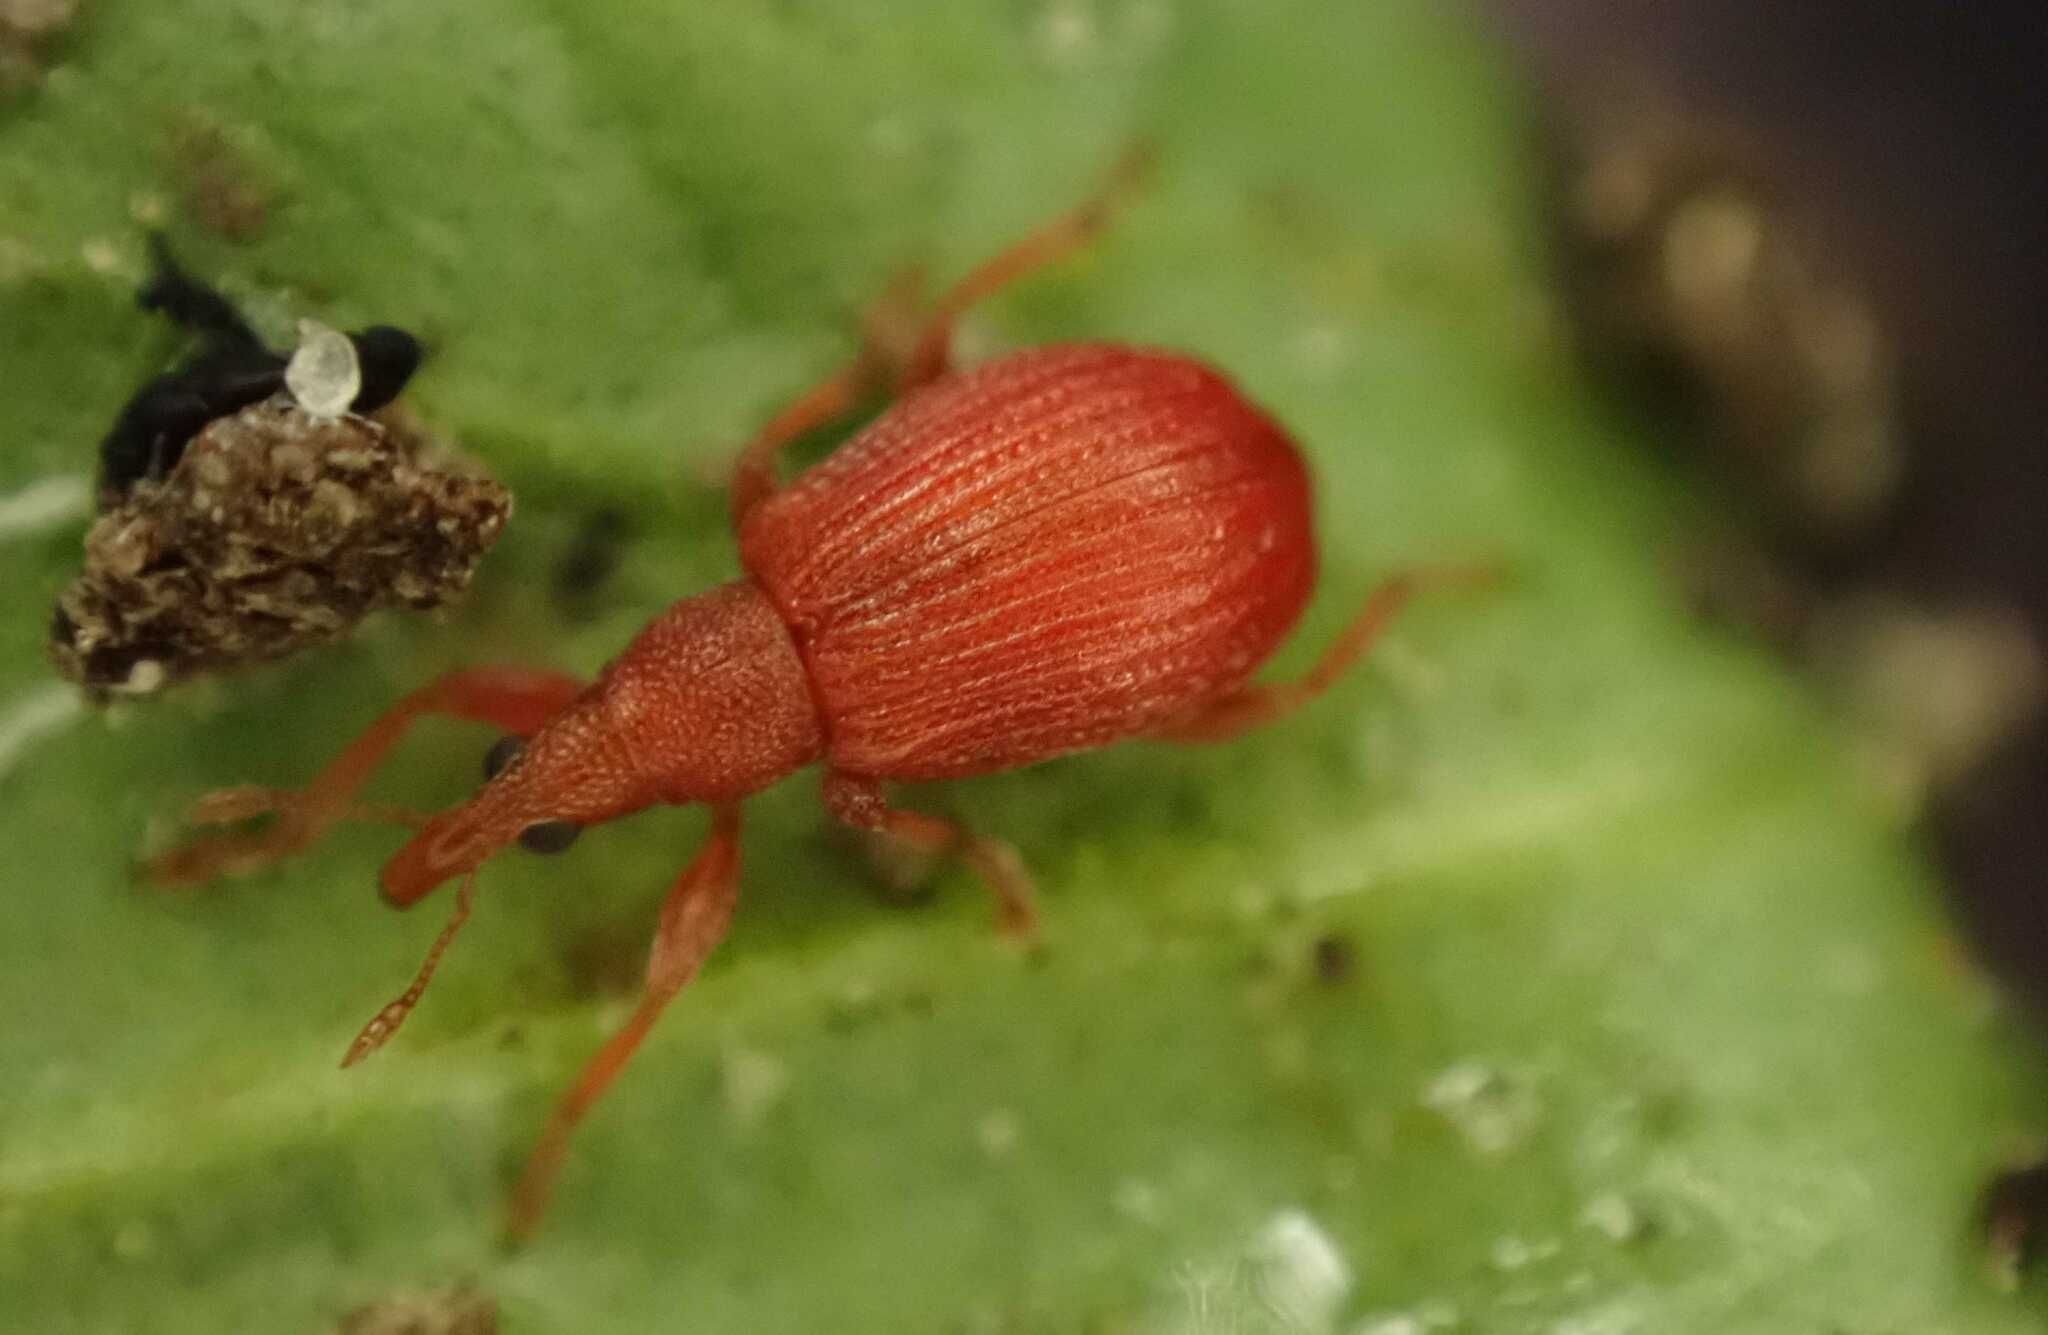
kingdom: Animalia
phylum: Arthropoda
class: Insecta
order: Coleoptera
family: Apionidae
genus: Apion
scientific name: Apion frumentarium
